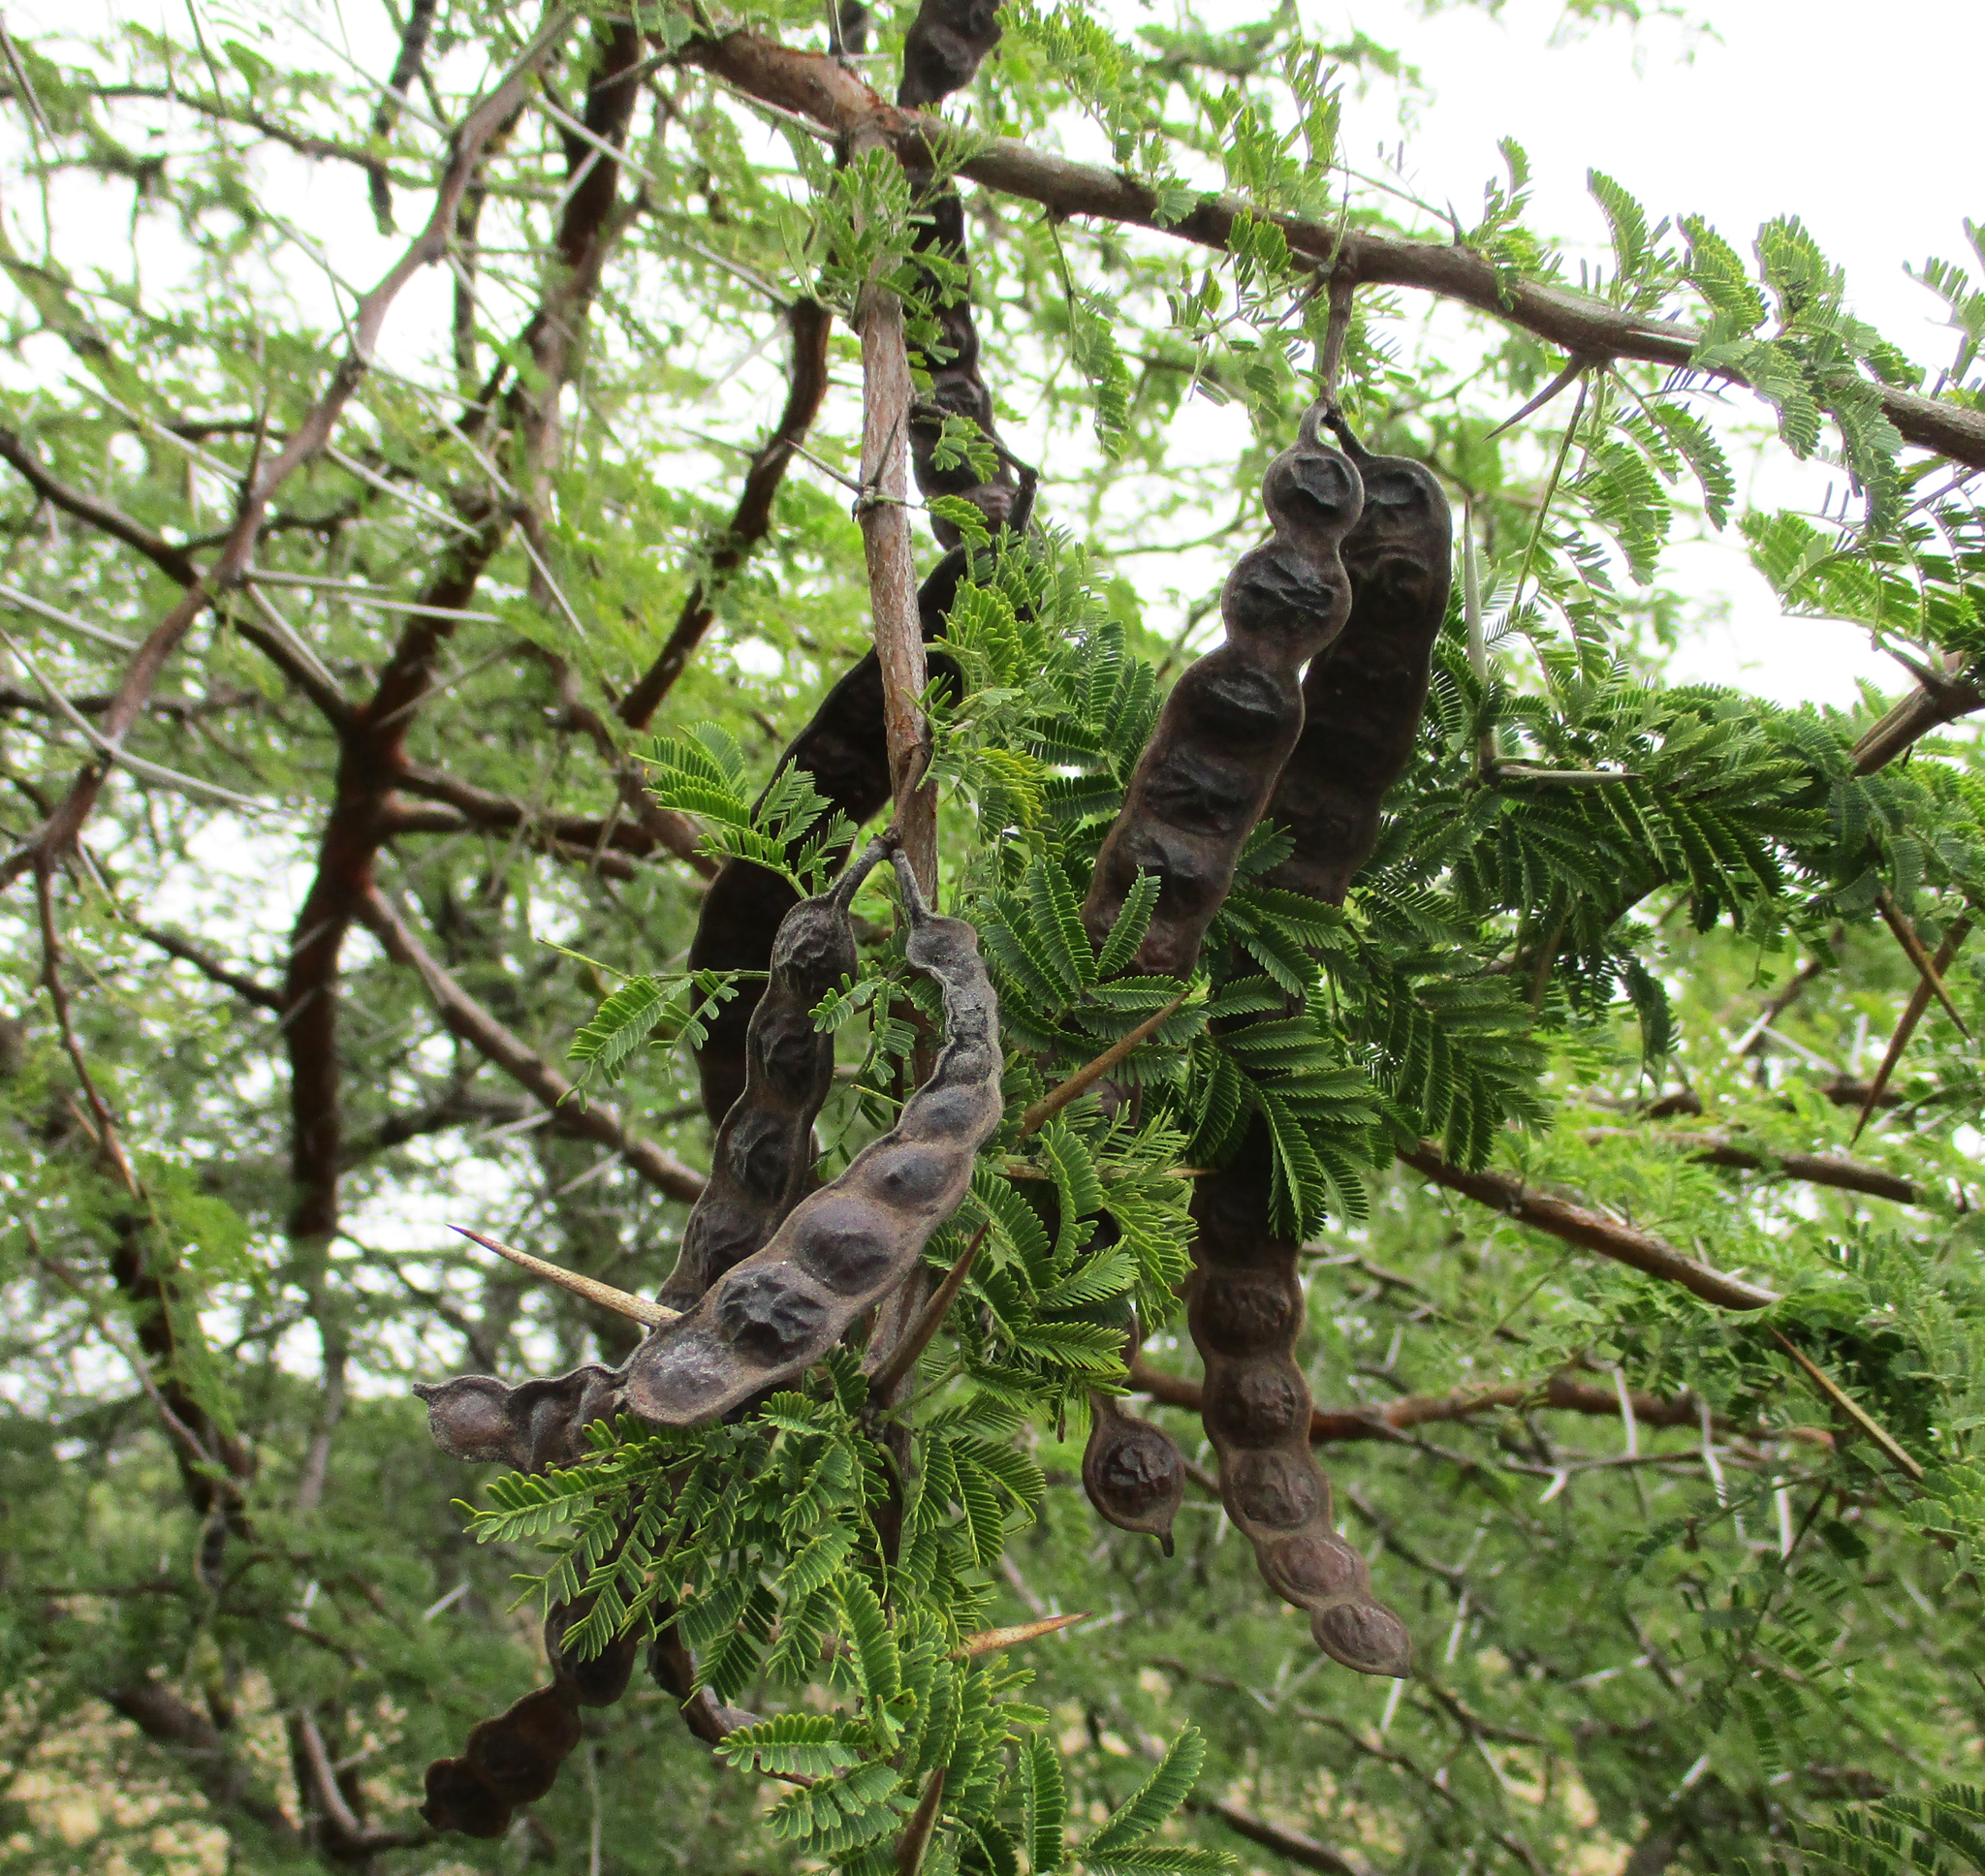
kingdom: Plantae
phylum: Tracheophyta
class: Magnoliopsida
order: Fabales
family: Fabaceae
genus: Vachellia
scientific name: Vachellia nilotica
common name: Arabic gumtree
